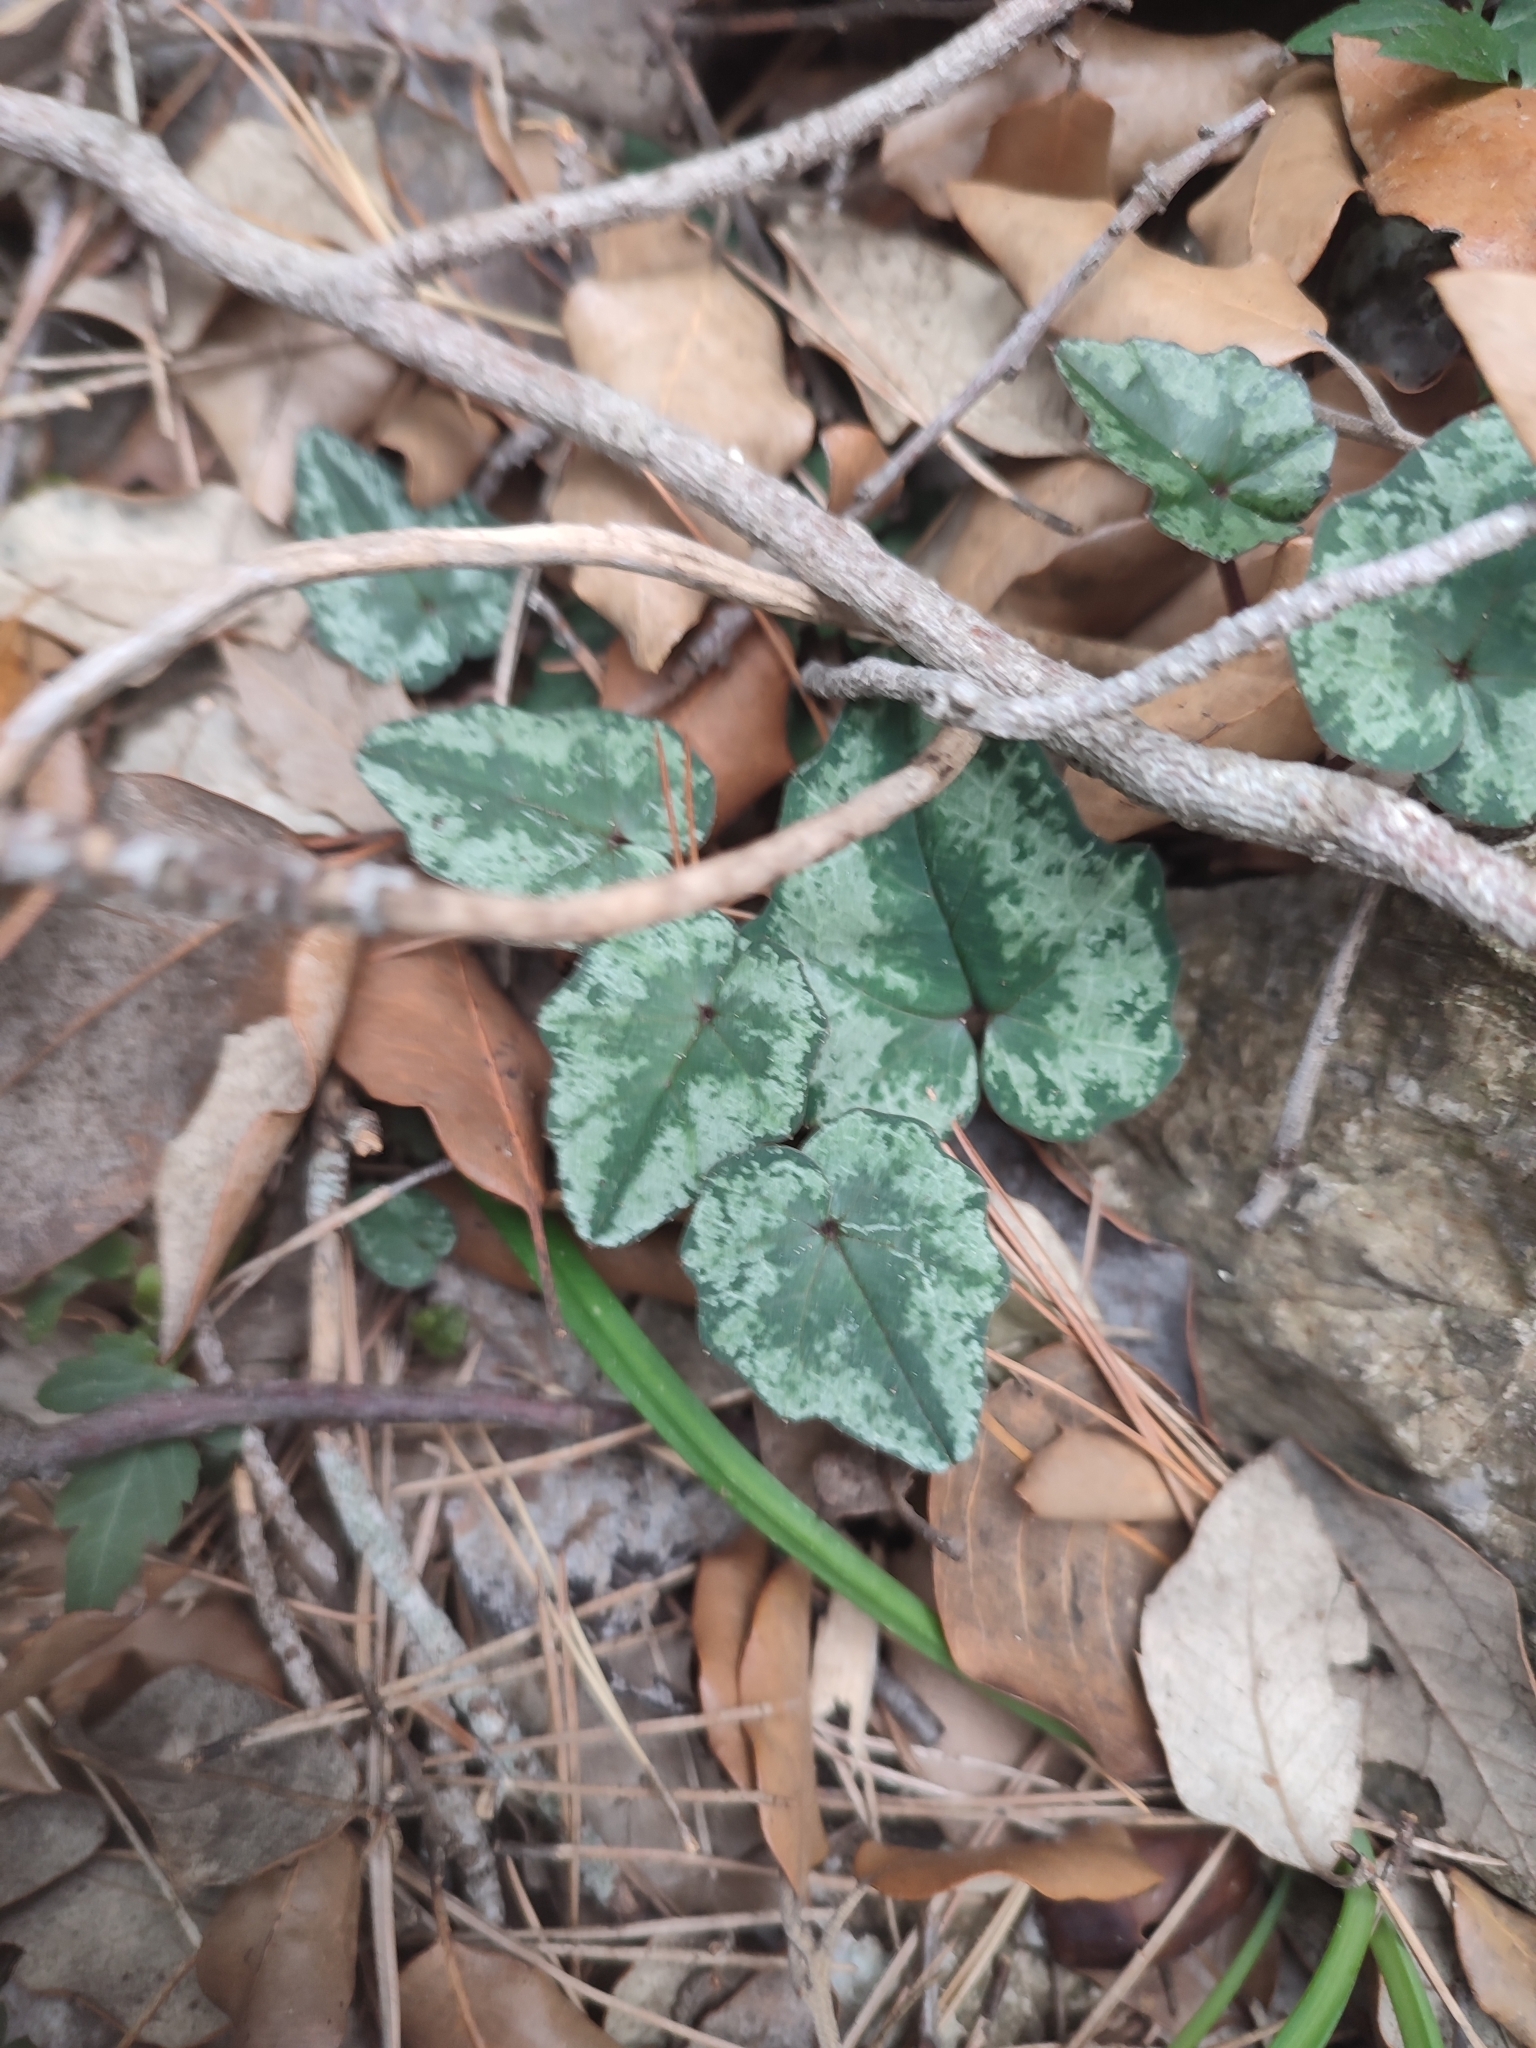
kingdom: Plantae
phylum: Tracheophyta
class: Magnoliopsida
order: Ericales
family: Primulaceae
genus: Cyclamen
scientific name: Cyclamen balearicum
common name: Majorca cyclamen
